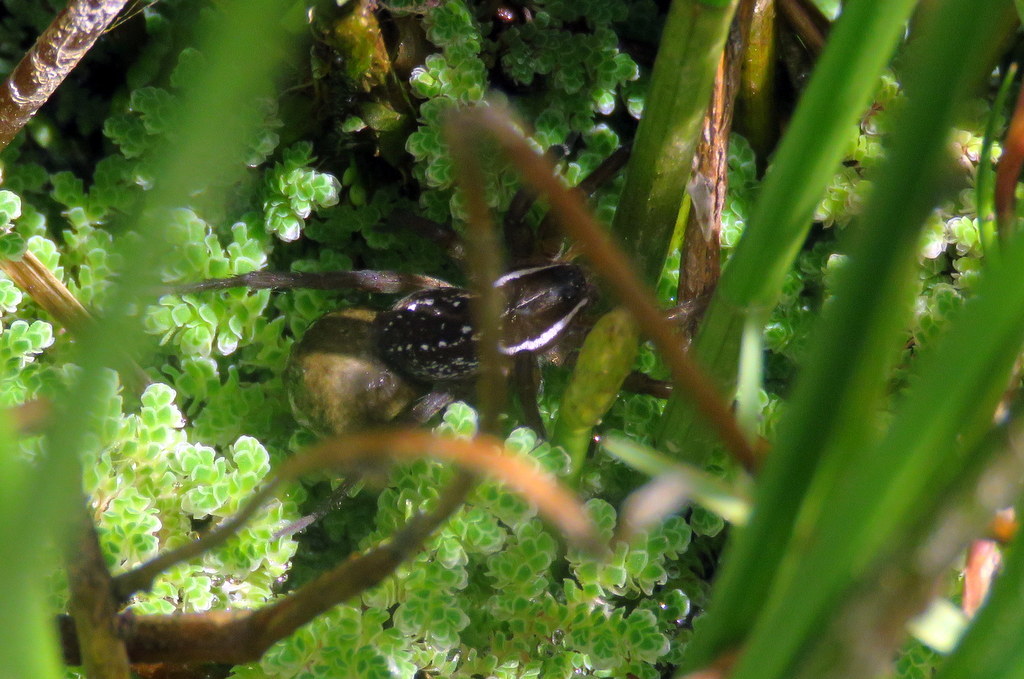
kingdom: Animalia
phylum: Arthropoda
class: Arachnida
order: Araneae
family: Lycosidae
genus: Diapontia
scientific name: Diapontia uruguayensis
